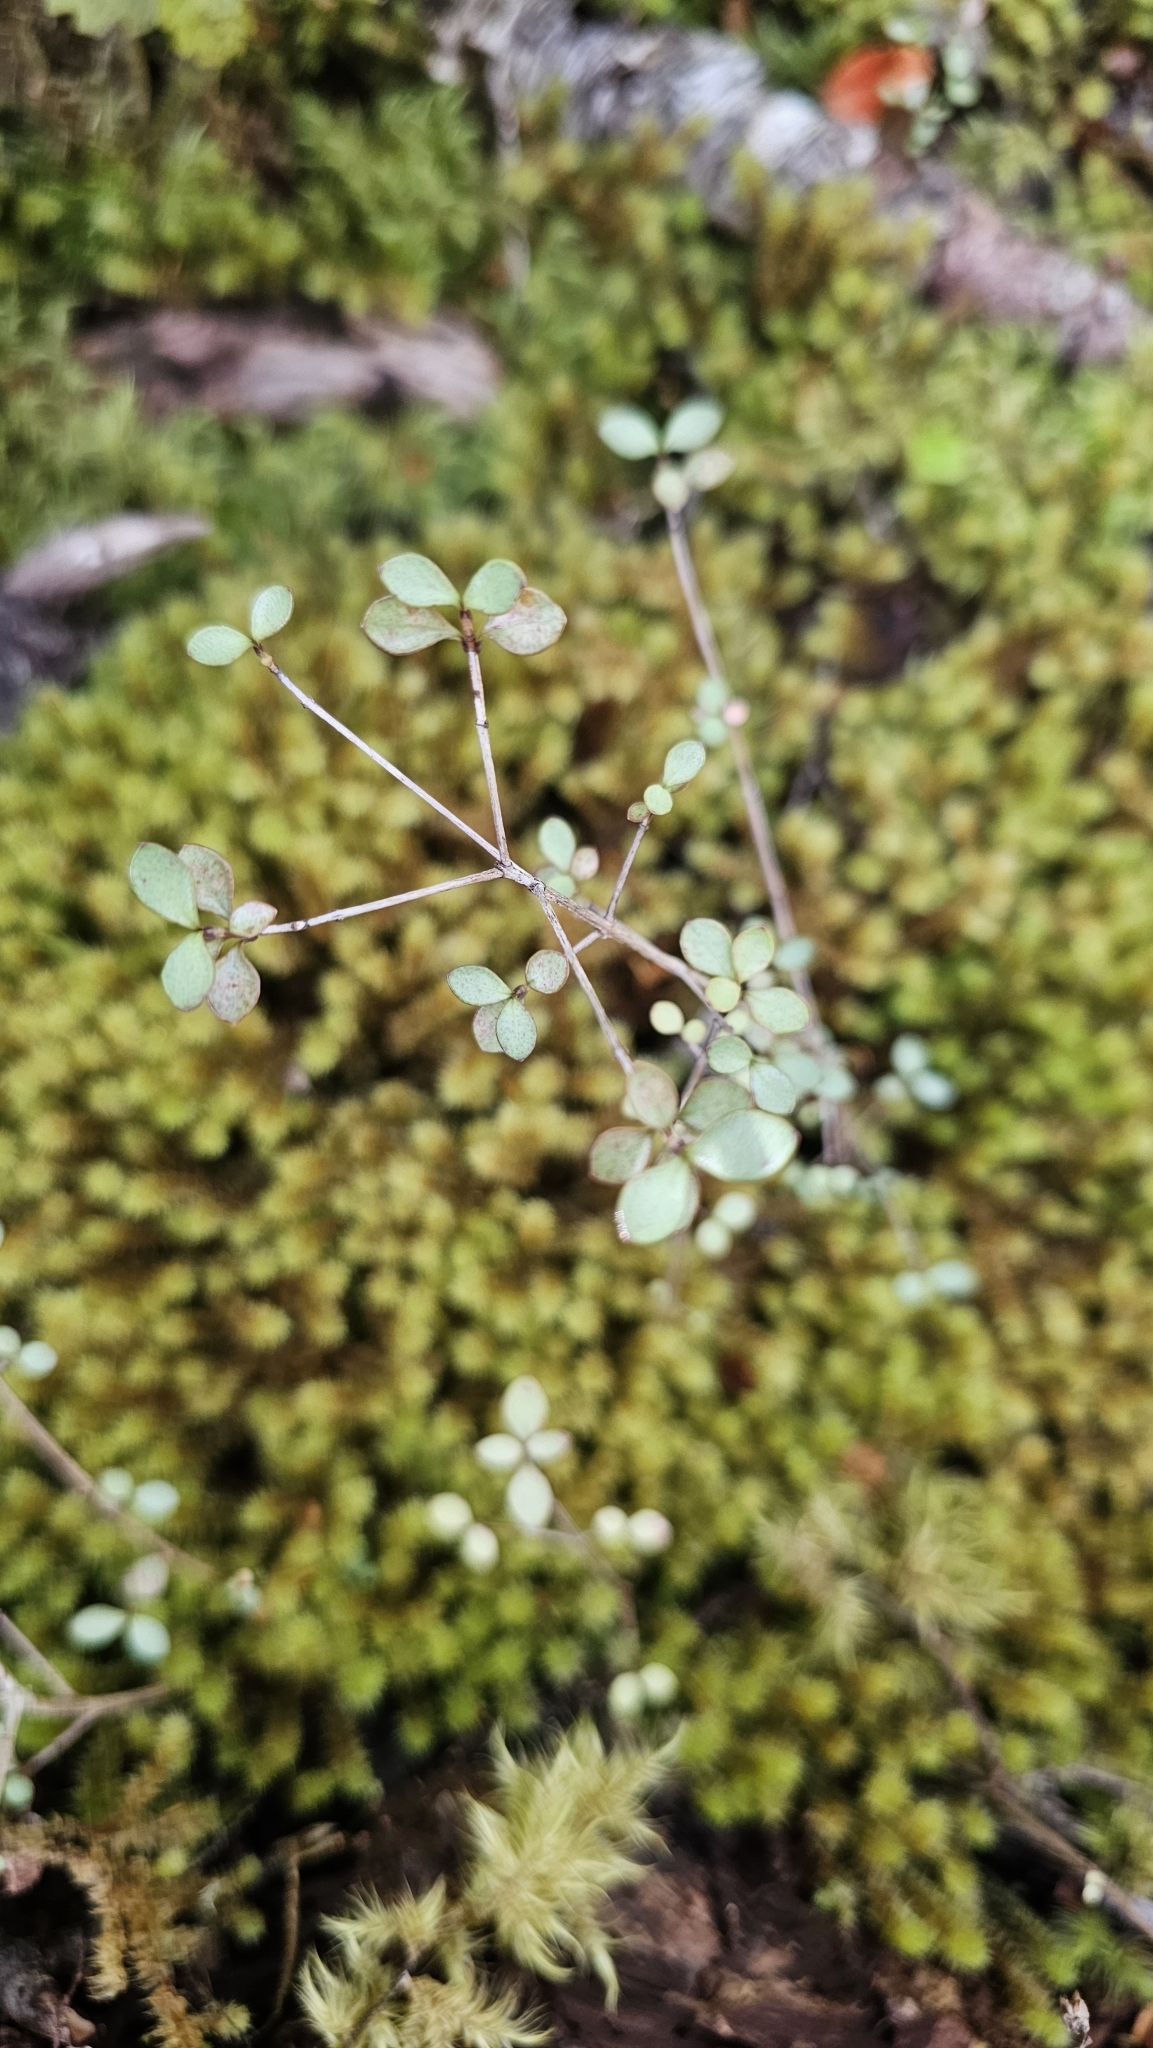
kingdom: Plantae
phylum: Tracheophyta
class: Magnoliopsida
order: Myrtales
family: Myrtaceae
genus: Neomyrtus
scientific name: Neomyrtus pedunculata
